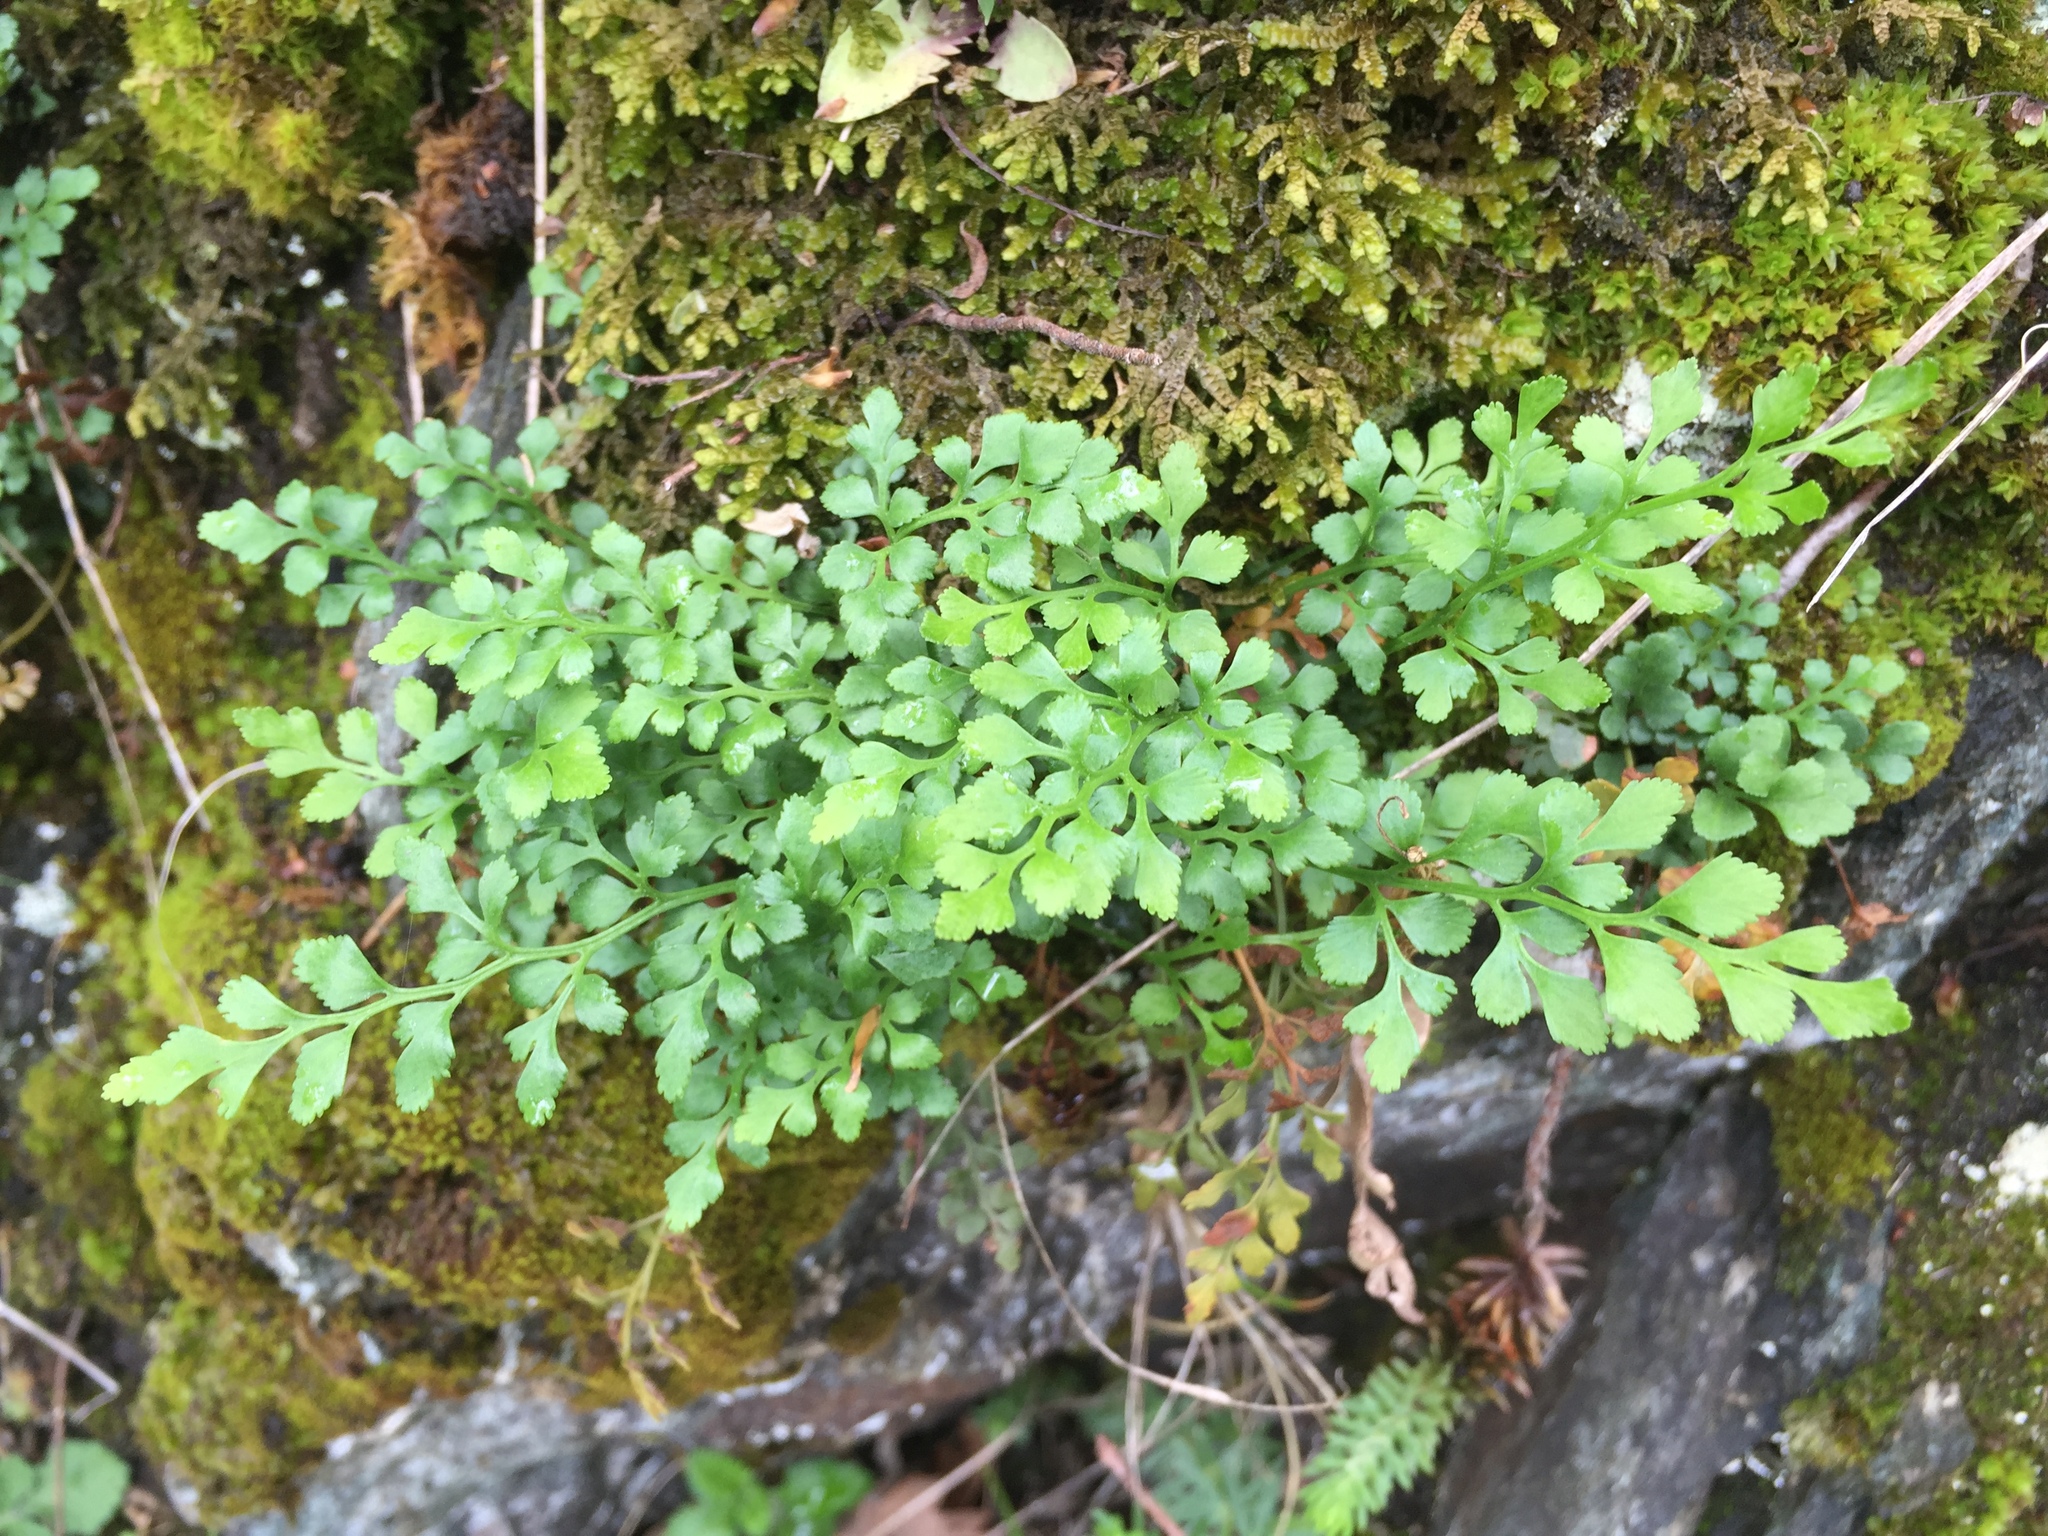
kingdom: Plantae
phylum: Tracheophyta
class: Polypodiopsida
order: Polypodiales
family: Aspleniaceae
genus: Asplenium
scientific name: Asplenium ruta-muraria
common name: Wall-rue
